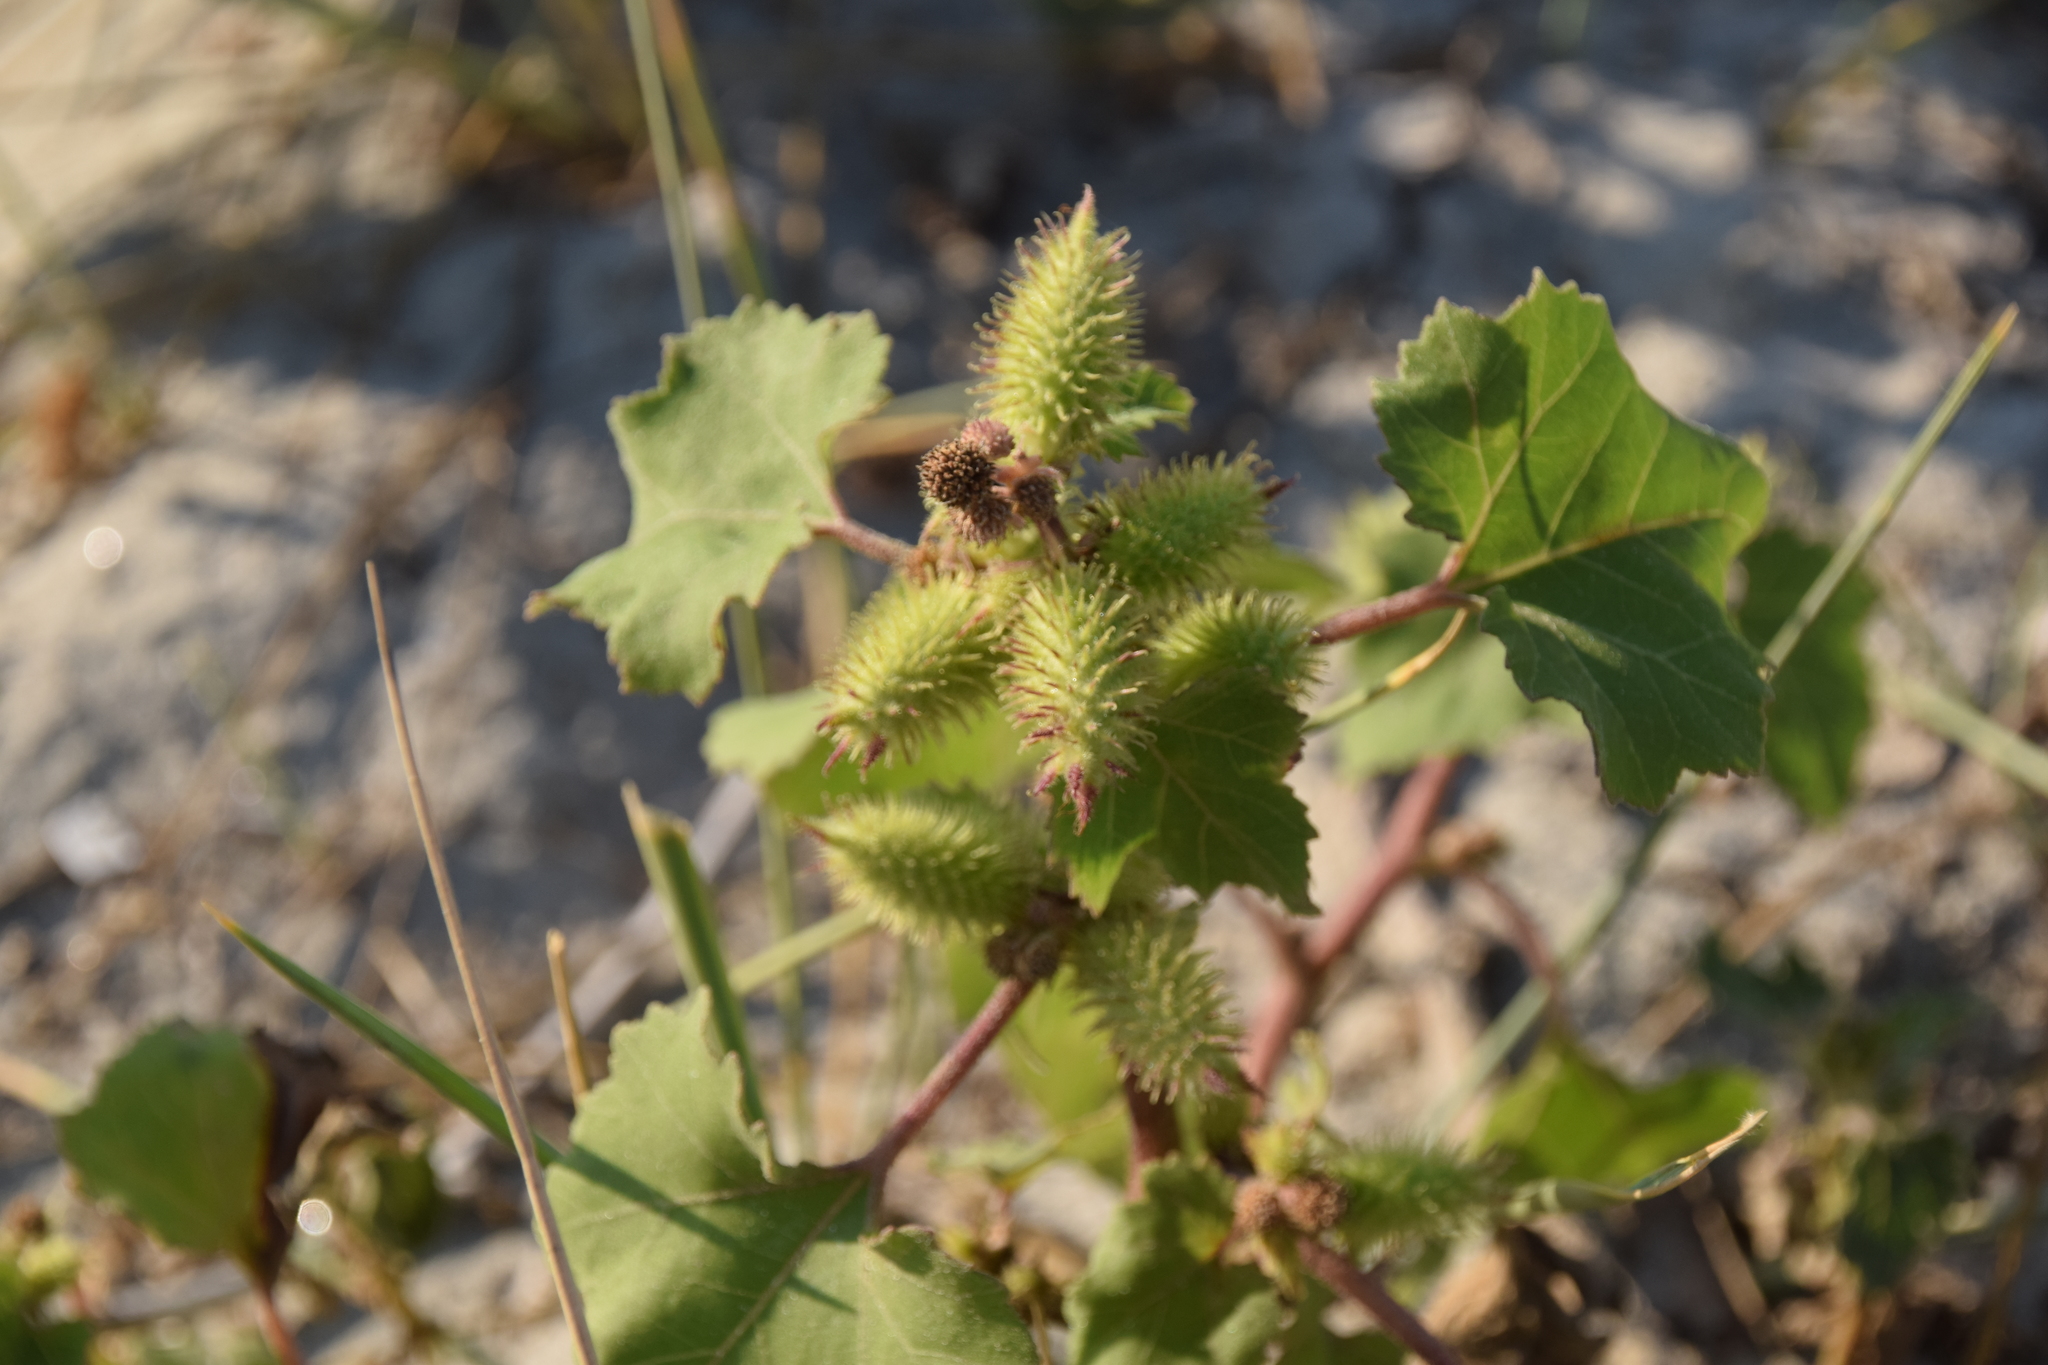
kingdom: Plantae
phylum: Tracheophyta
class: Magnoliopsida
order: Asterales
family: Asteraceae
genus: Xanthium
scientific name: Xanthium strumarium
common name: Rough cocklebur
